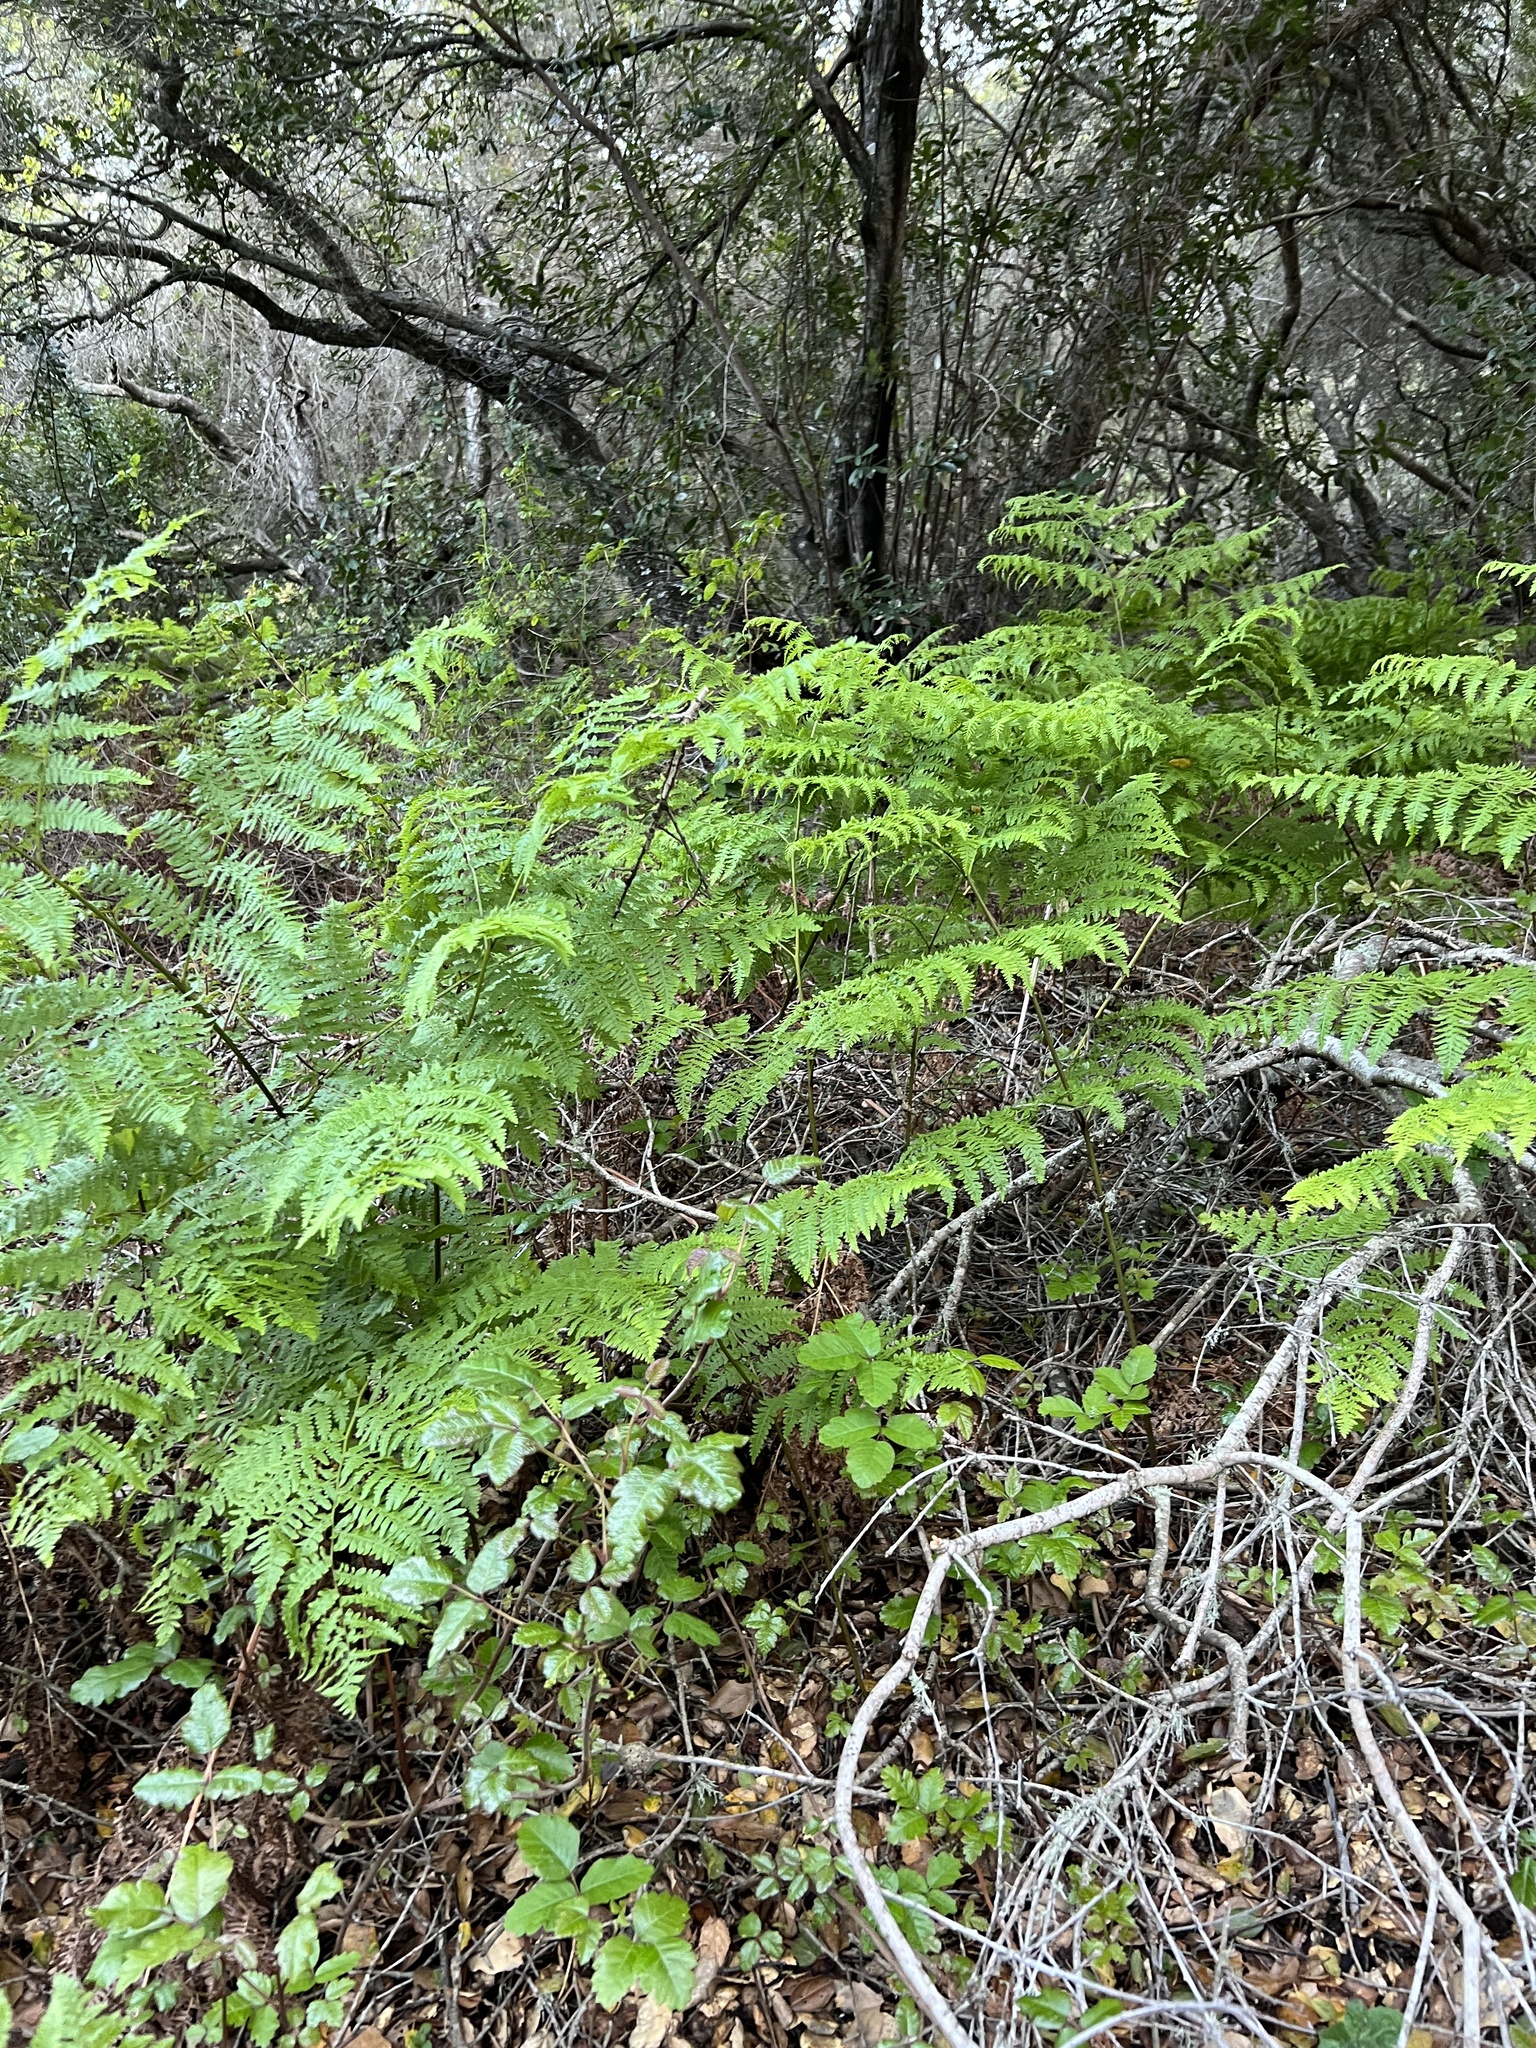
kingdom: Plantae
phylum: Tracheophyta
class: Polypodiopsida
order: Polypodiales
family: Dennstaedtiaceae
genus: Pteridium
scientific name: Pteridium aquilinum
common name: Bracken
